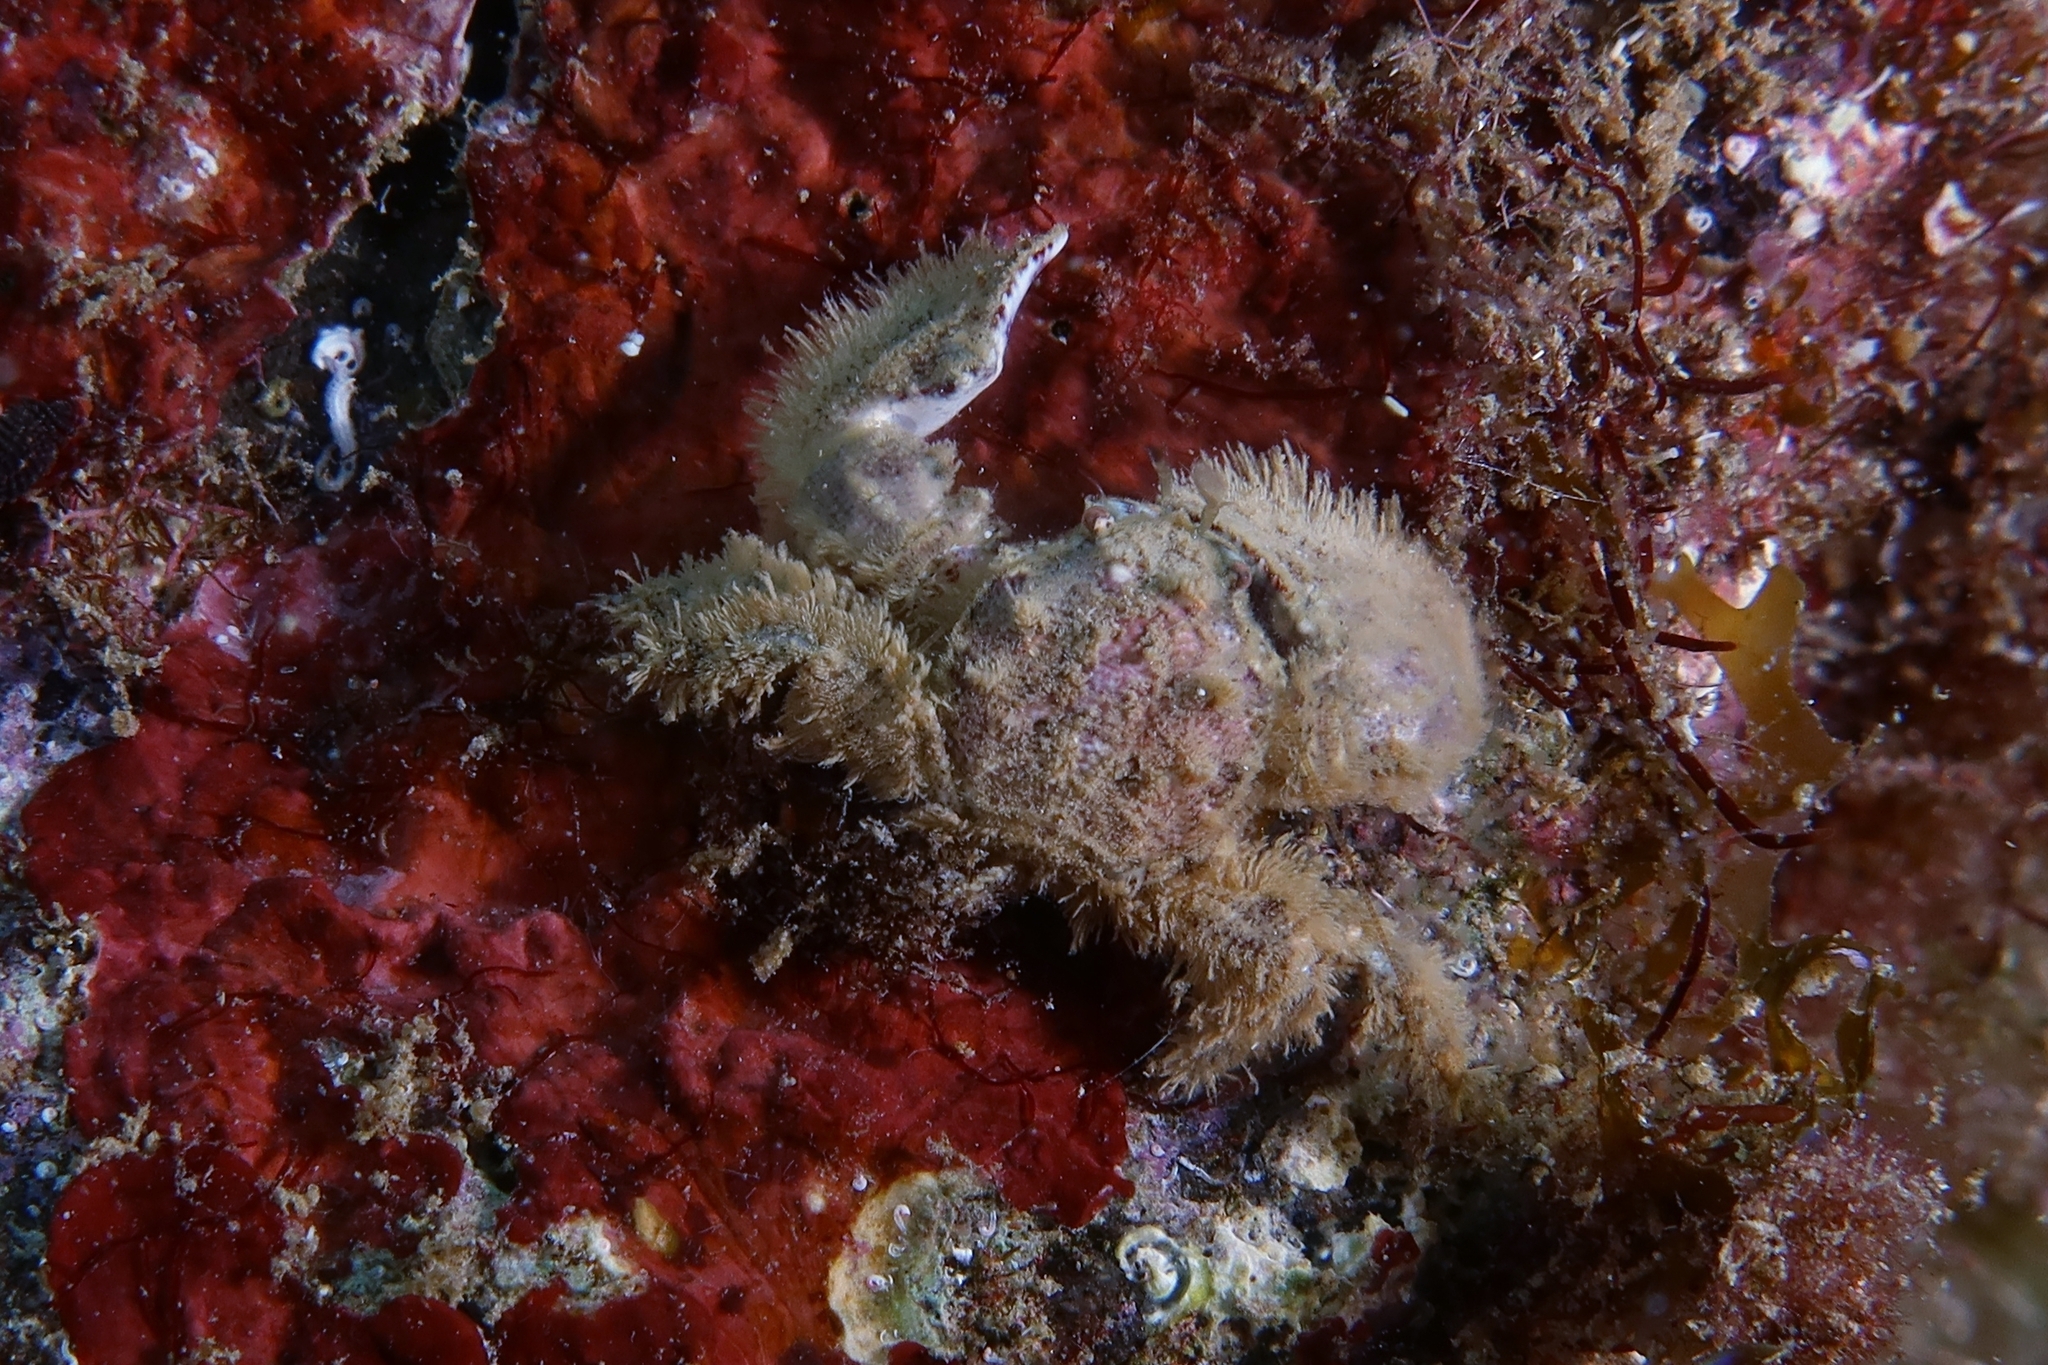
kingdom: Animalia
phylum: Arthropoda
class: Malacostraca
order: Decapoda
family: Porcellanidae
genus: Porcellana
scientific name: Porcellana platycheles
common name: Porcelain crab
